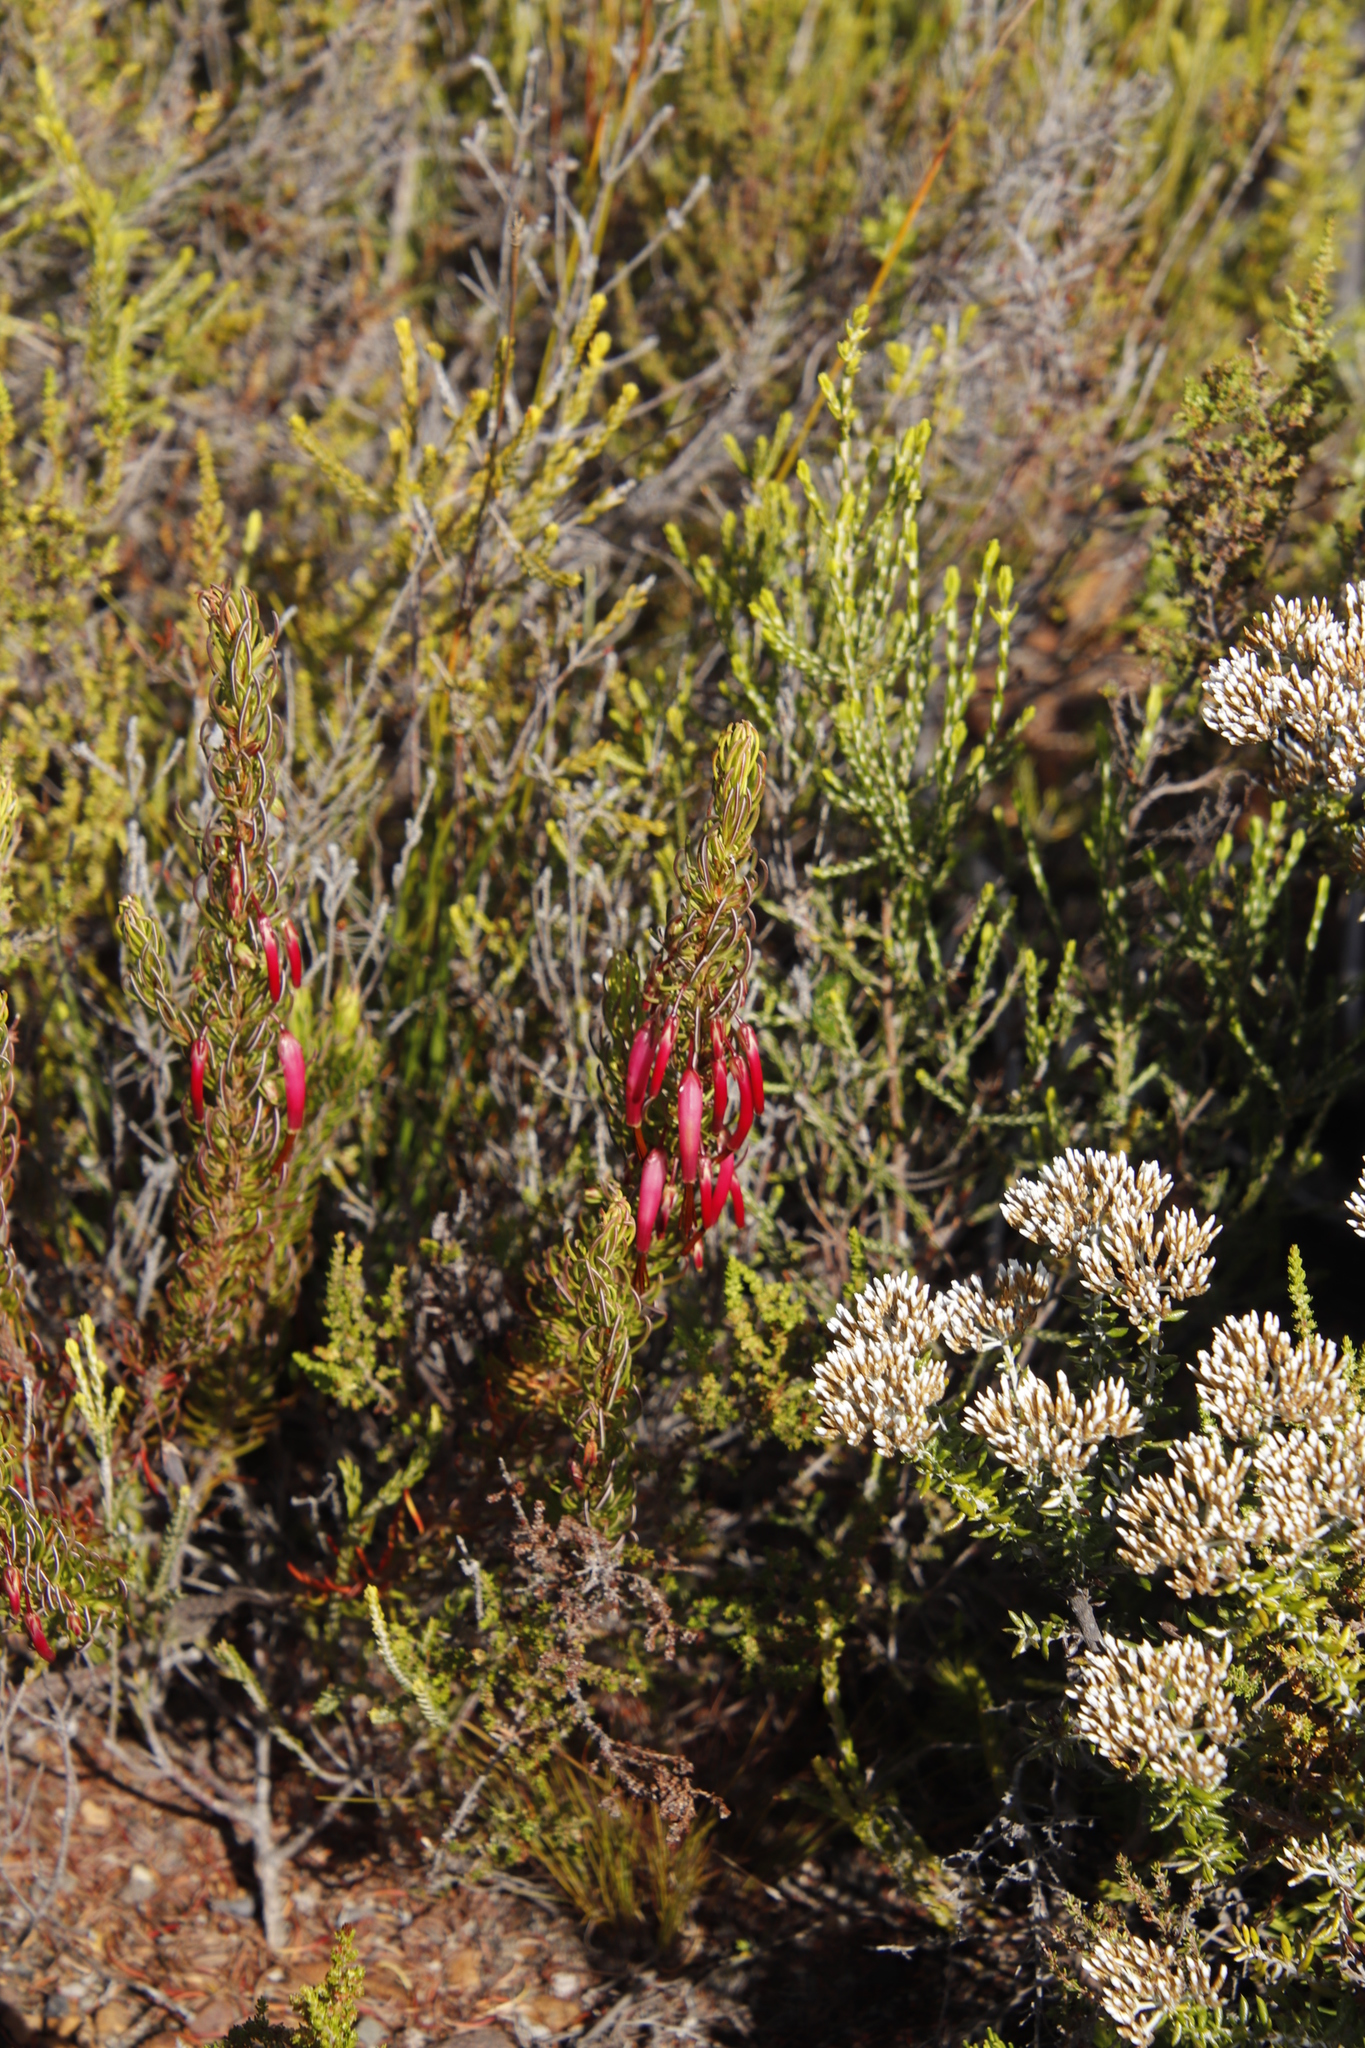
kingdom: Plantae
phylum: Tracheophyta
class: Magnoliopsida
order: Ericales
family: Ericaceae
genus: Erica
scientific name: Erica plukenetii
